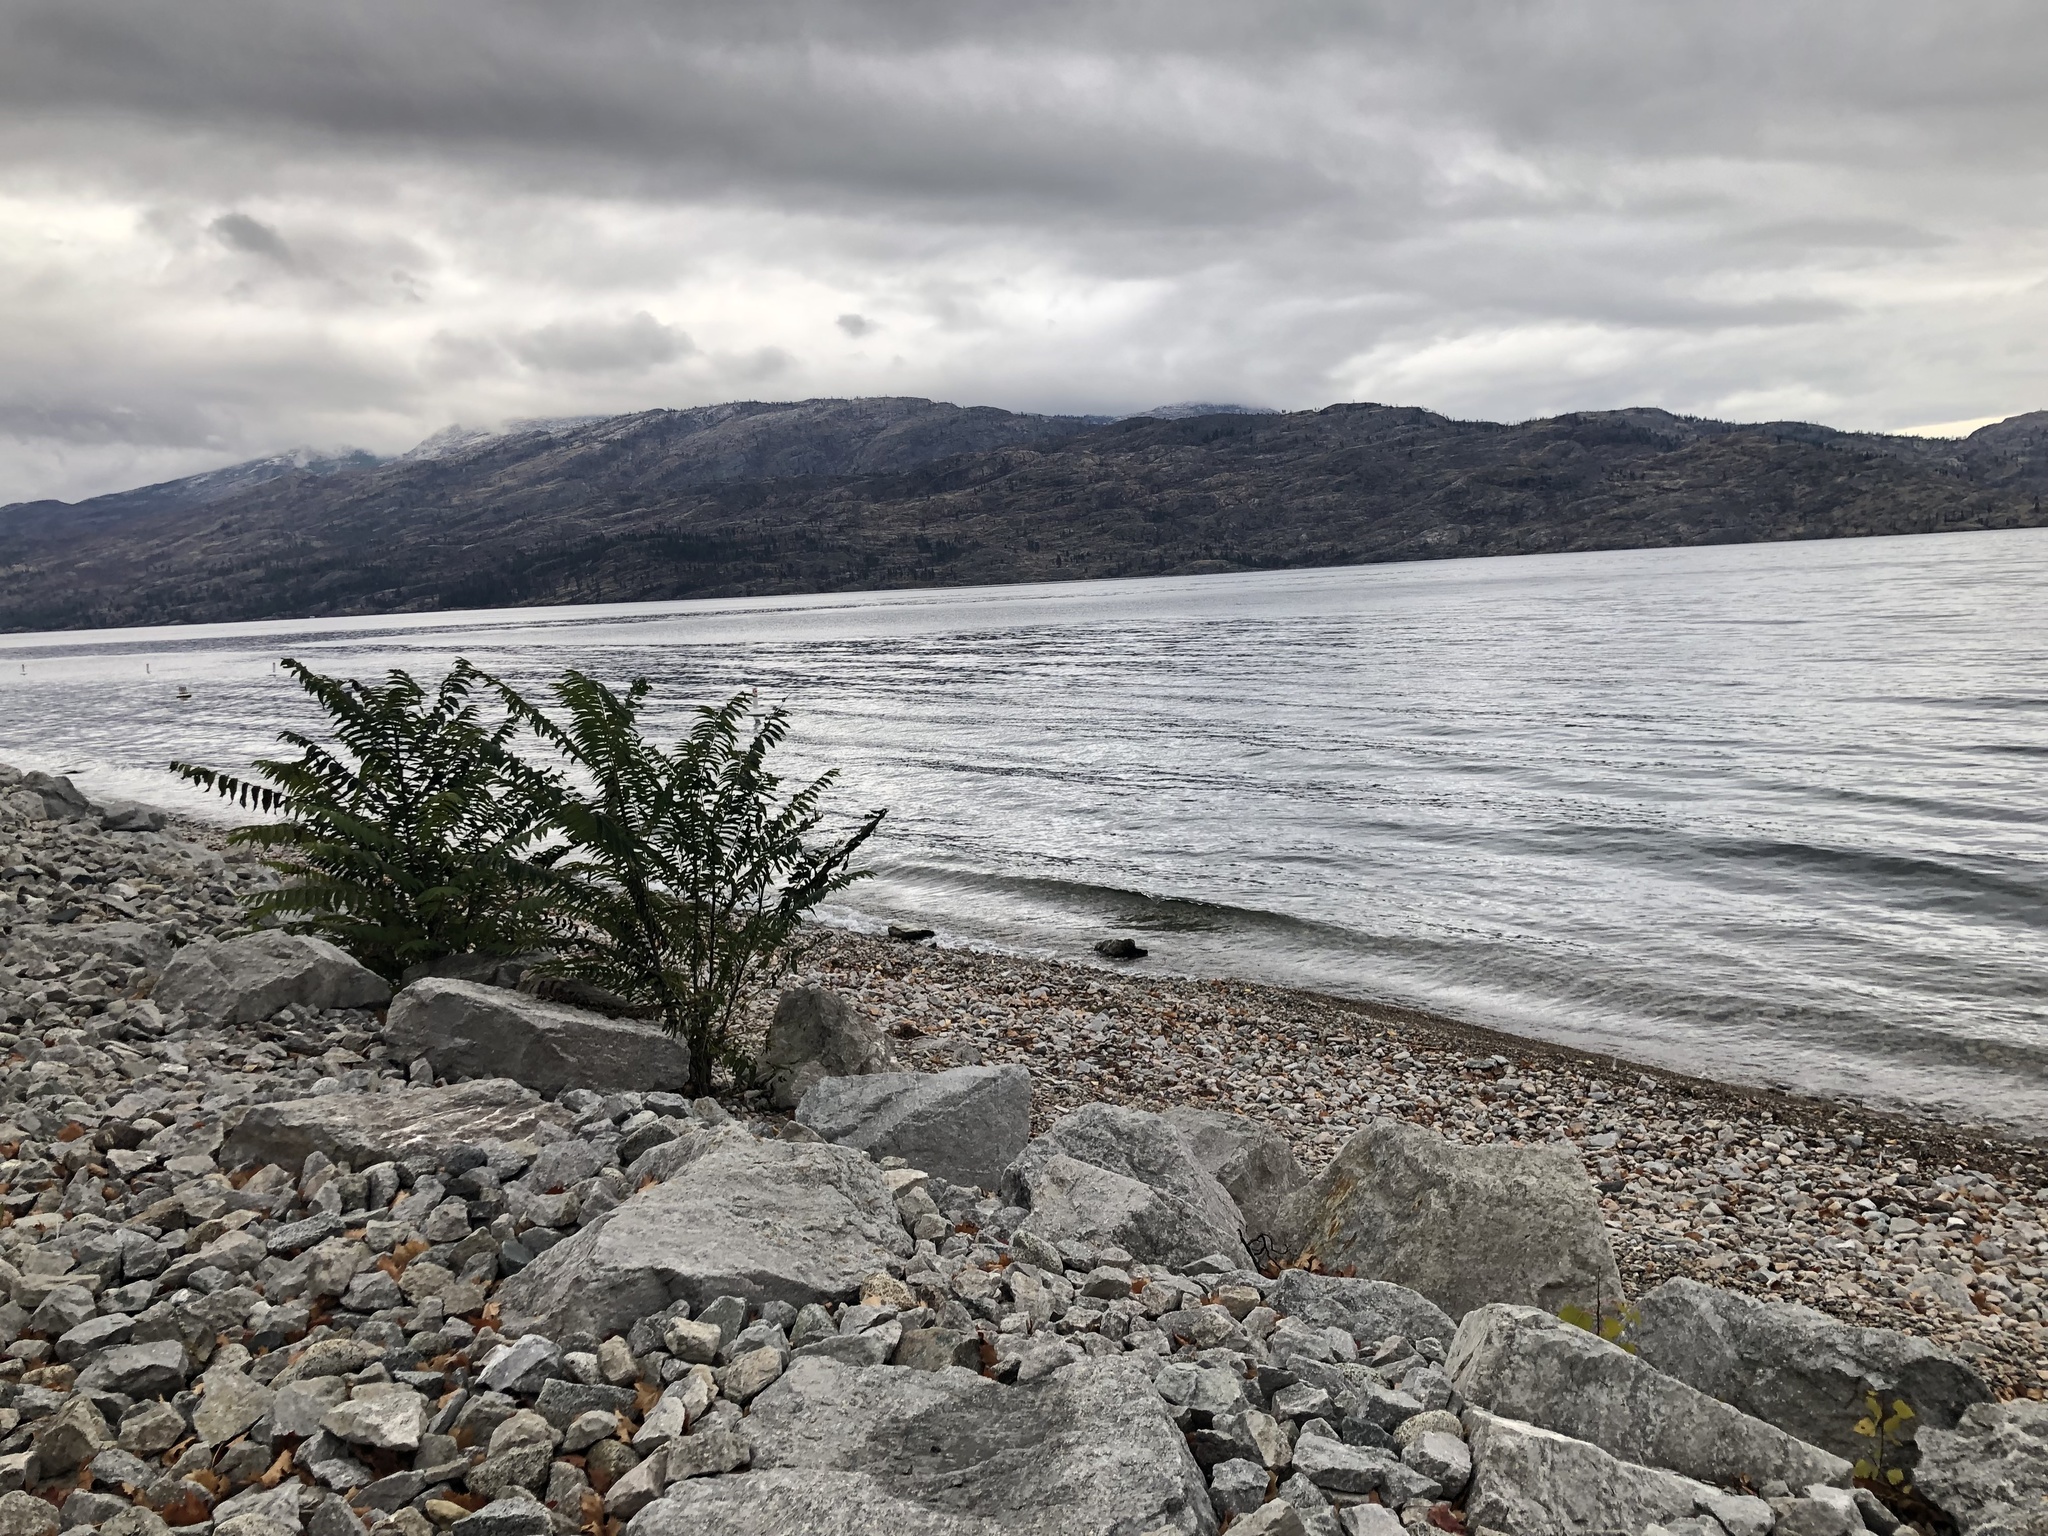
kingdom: Plantae
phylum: Tracheophyta
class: Magnoliopsida
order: Sapindales
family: Simaroubaceae
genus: Ailanthus
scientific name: Ailanthus altissima
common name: Tree-of-heaven
